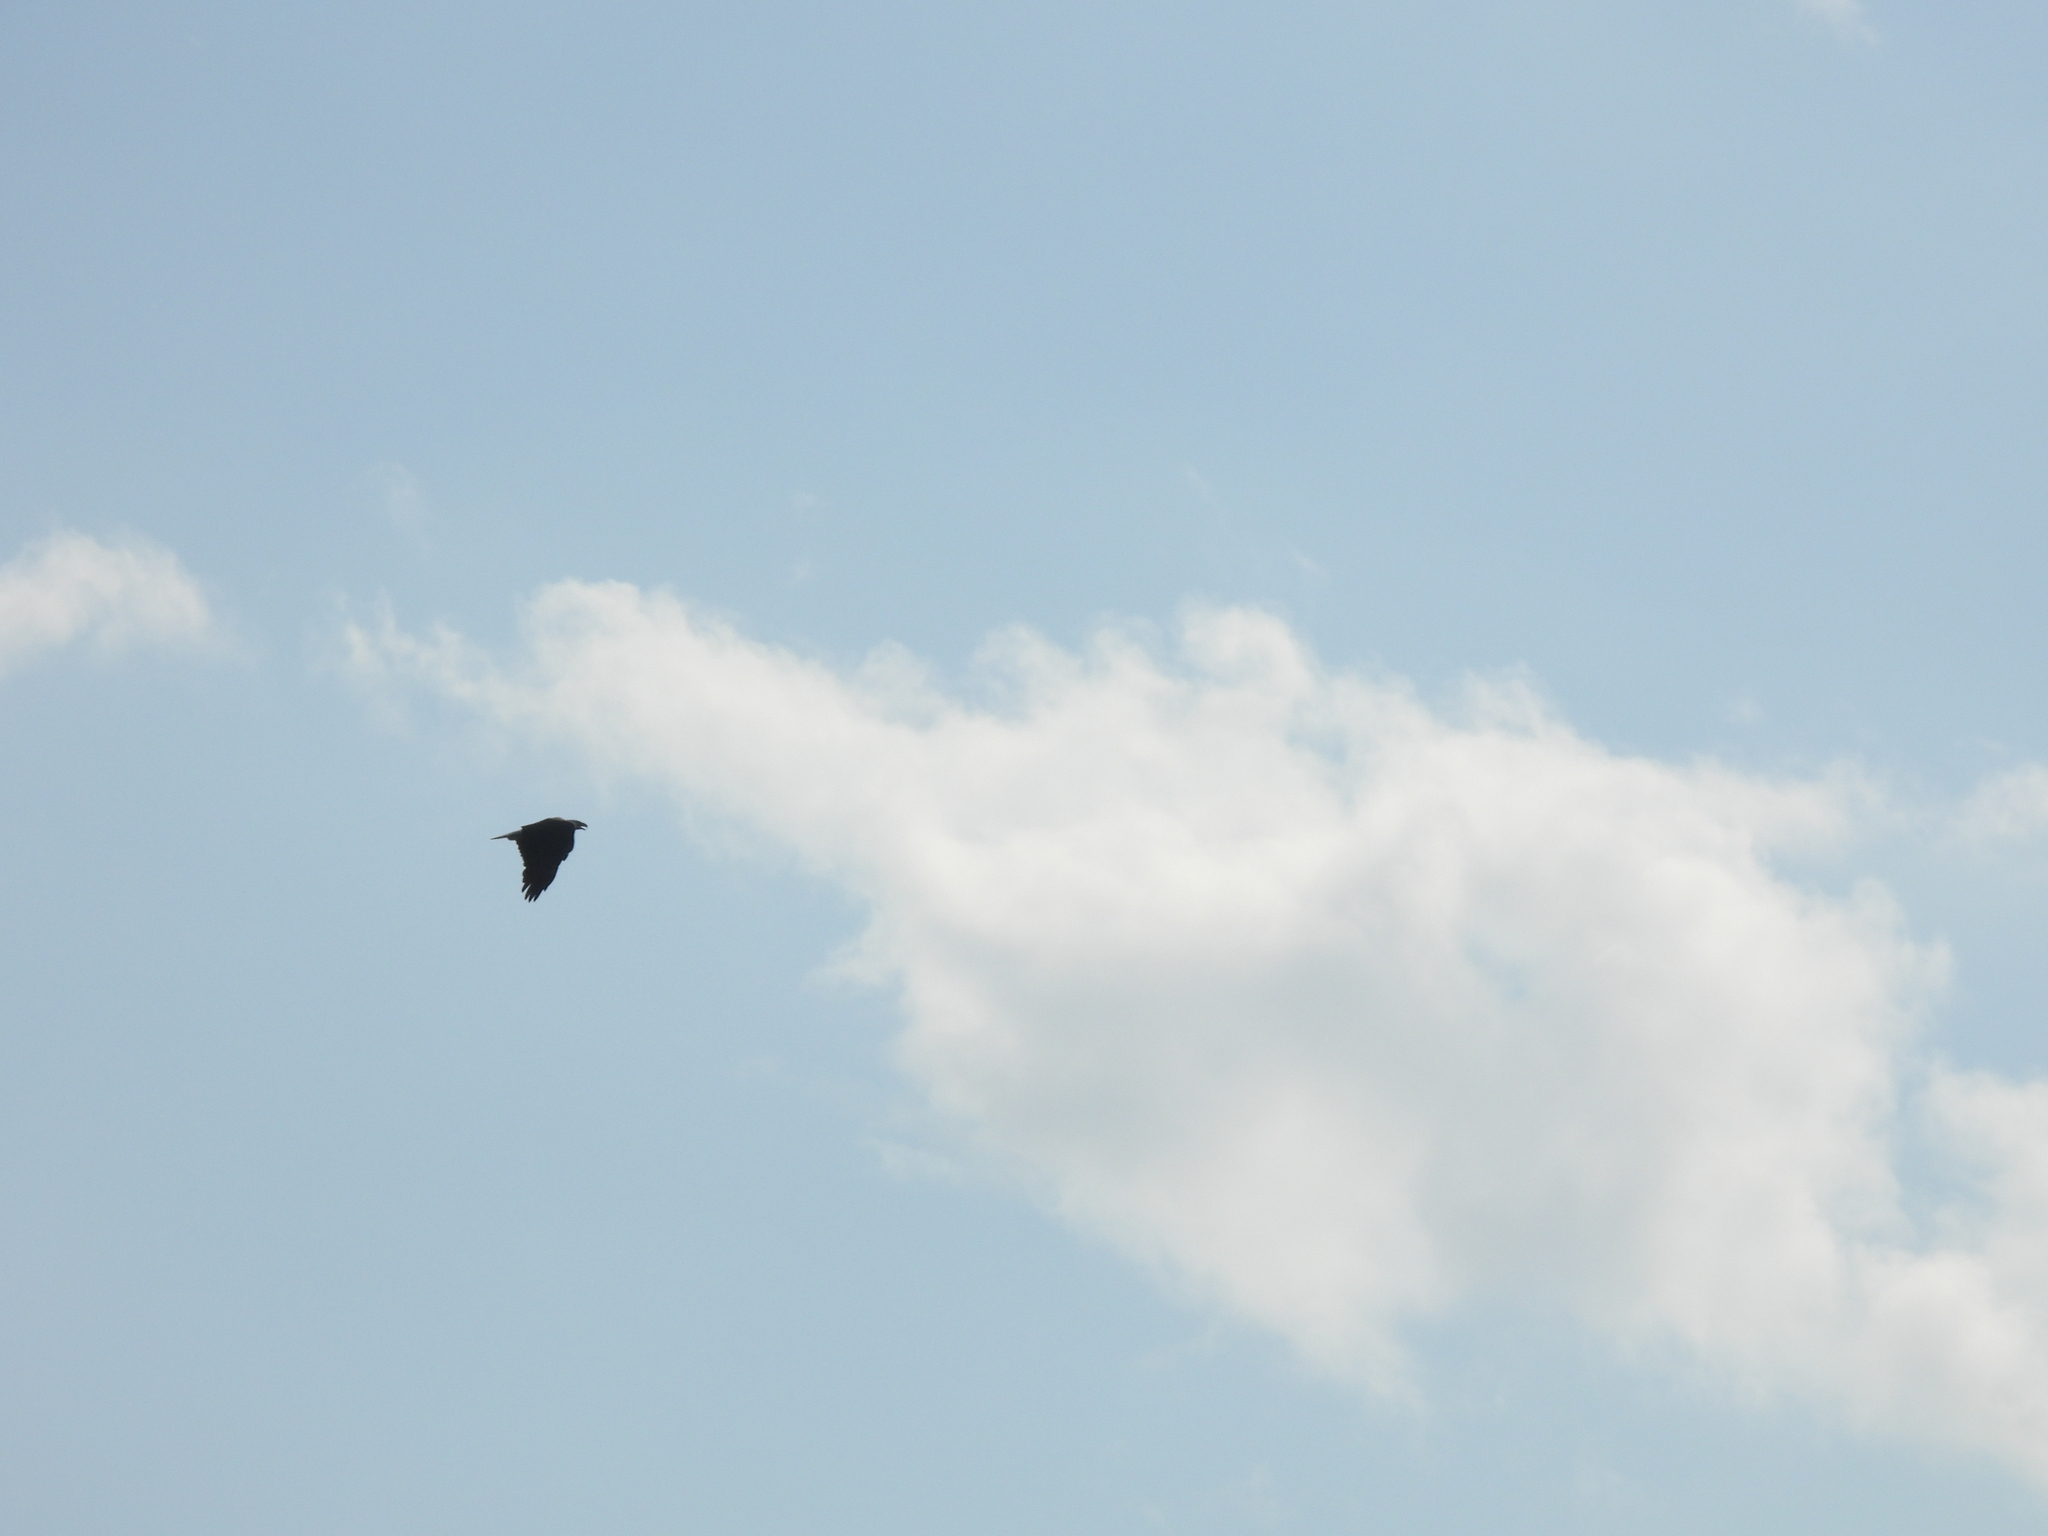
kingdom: Animalia
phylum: Chordata
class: Aves
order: Accipitriformes
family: Accipitridae
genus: Haliaeetus
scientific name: Haliaeetus leucocephalus
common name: Bald eagle
